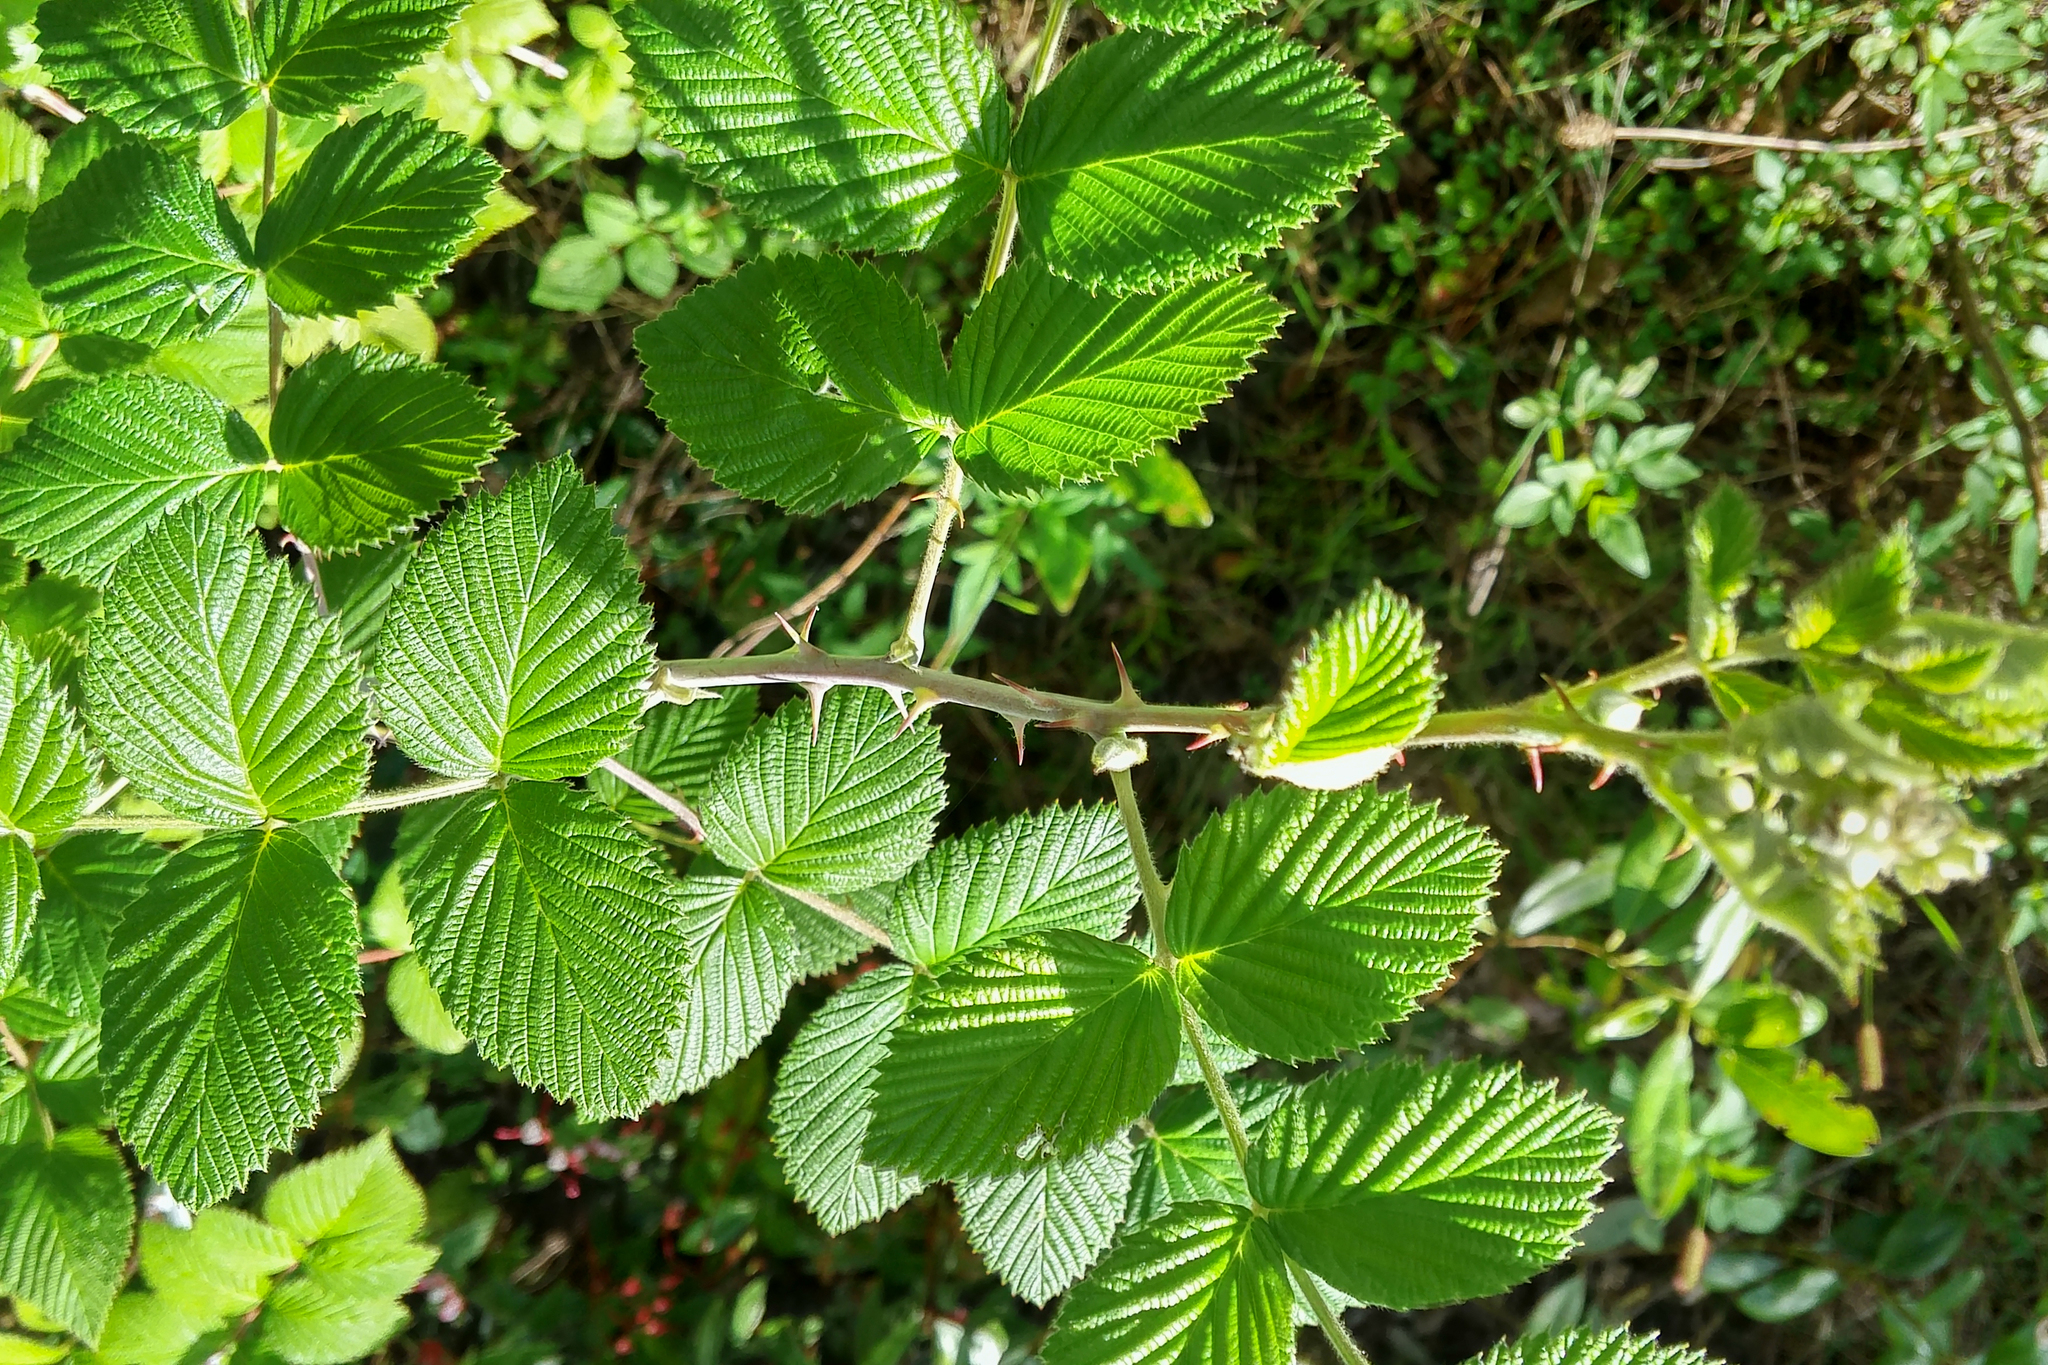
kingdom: Plantae
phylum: Tracheophyta
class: Magnoliopsida
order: Rosales
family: Rosaceae
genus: Rubus
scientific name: Rubus niveus
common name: Snowpeaks raspberry
